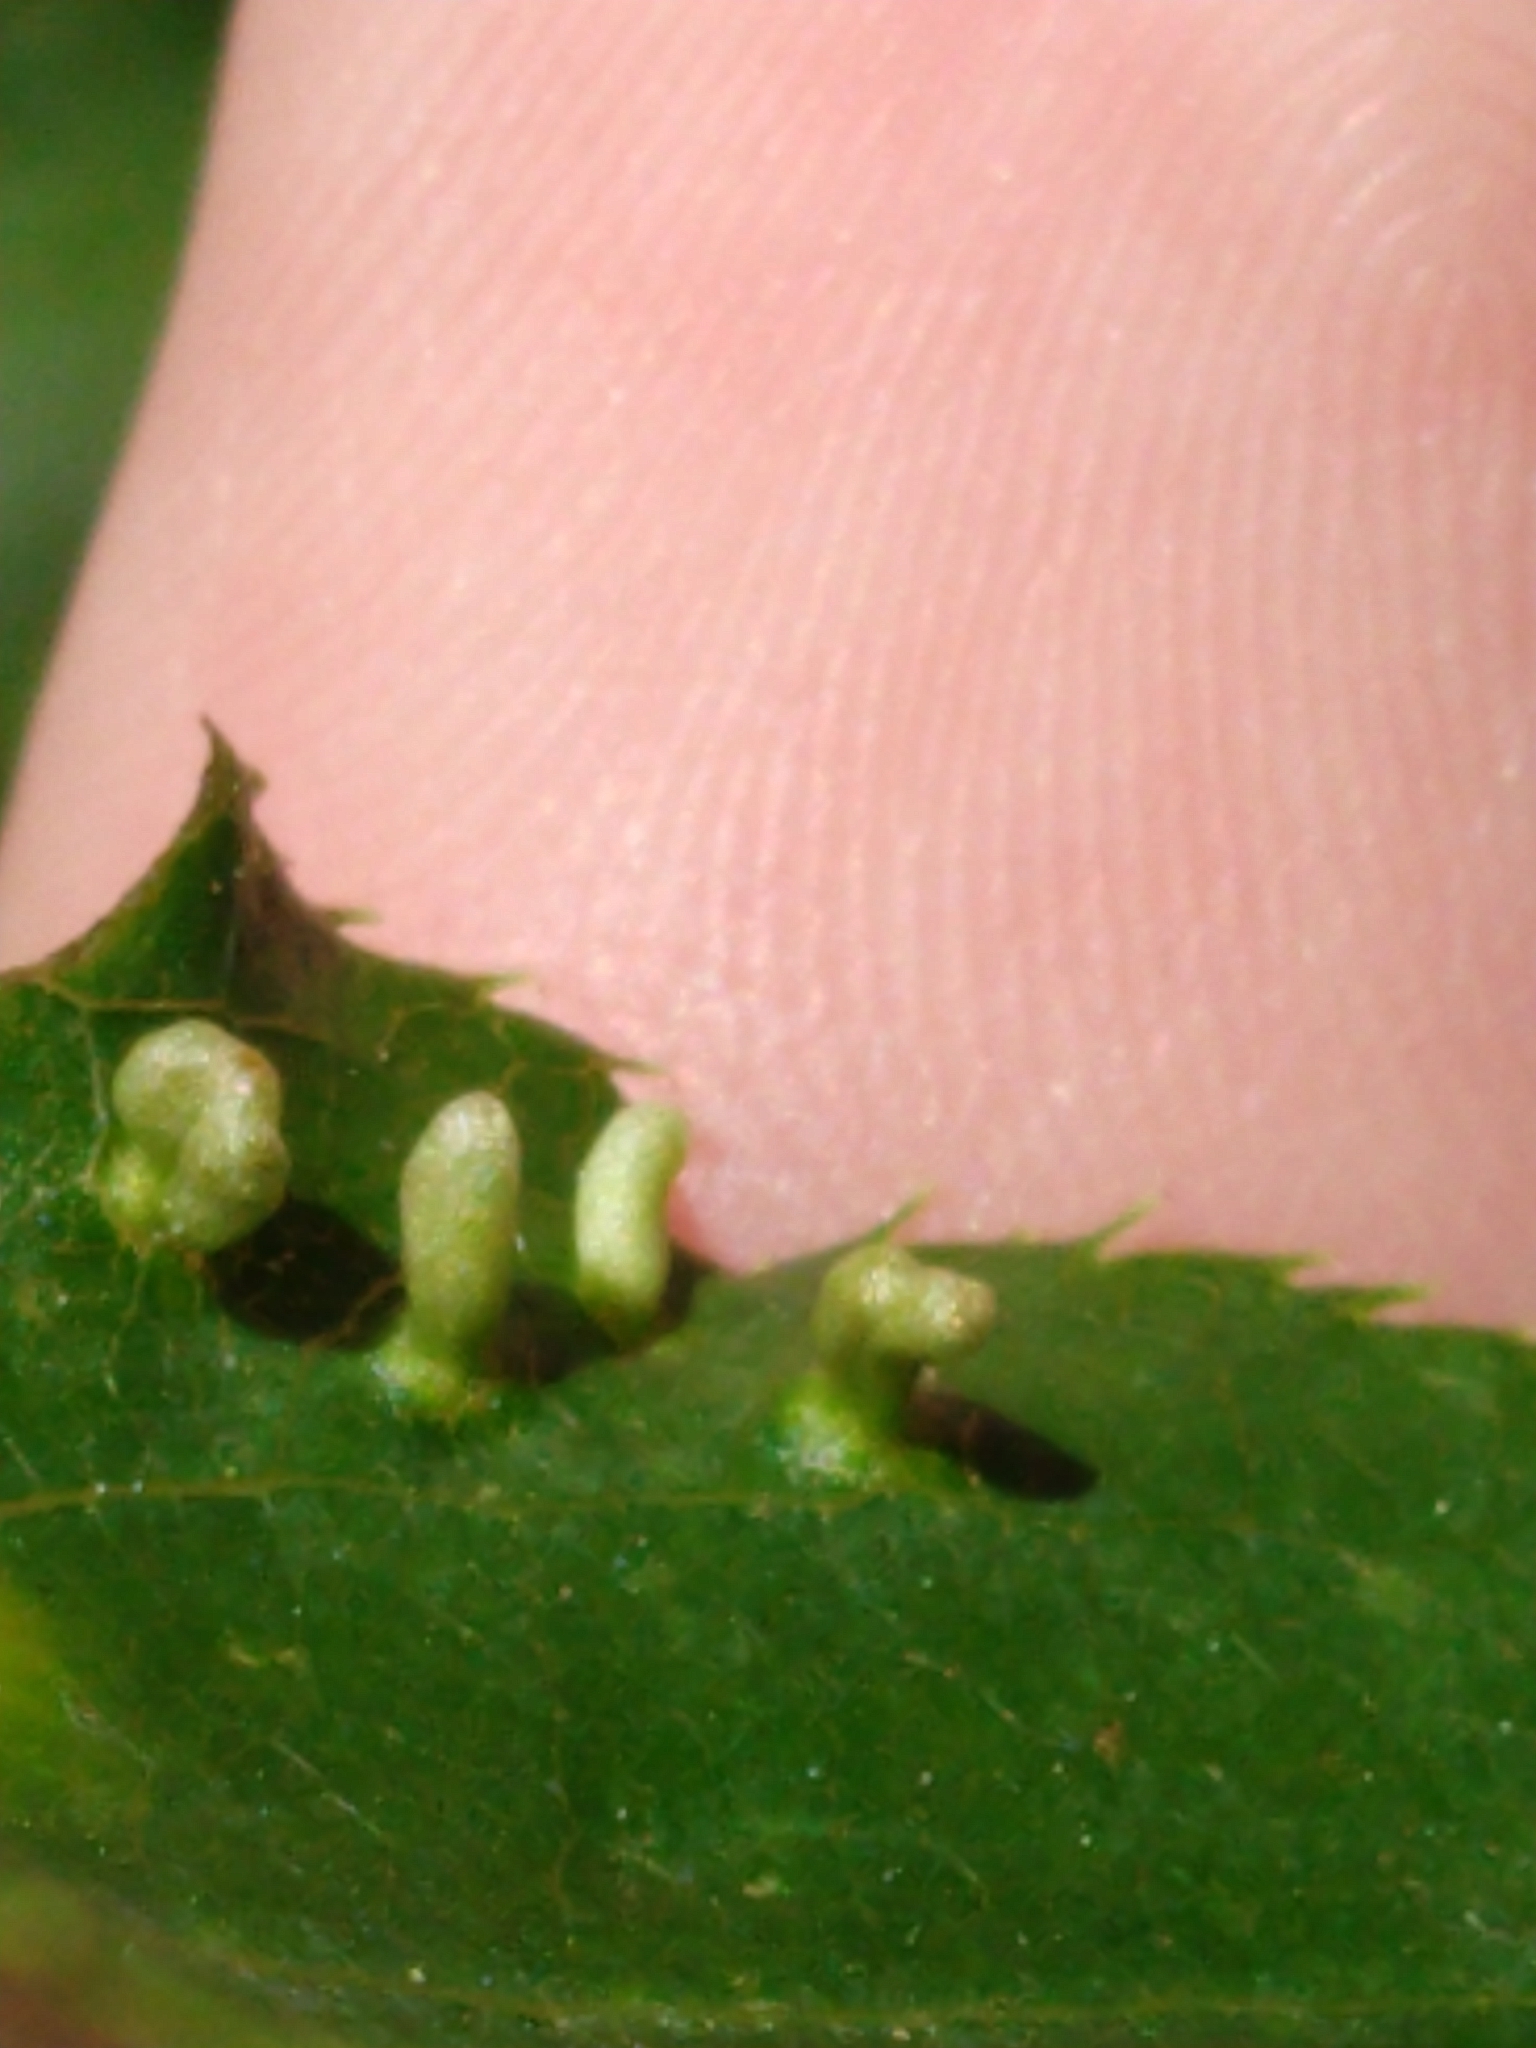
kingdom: Animalia
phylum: Arthropoda
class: Arachnida
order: Trombidiformes
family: Eriophyidae
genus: Eriophyes
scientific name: Eriophyes emarginatae
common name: Plum leaf gall mite
